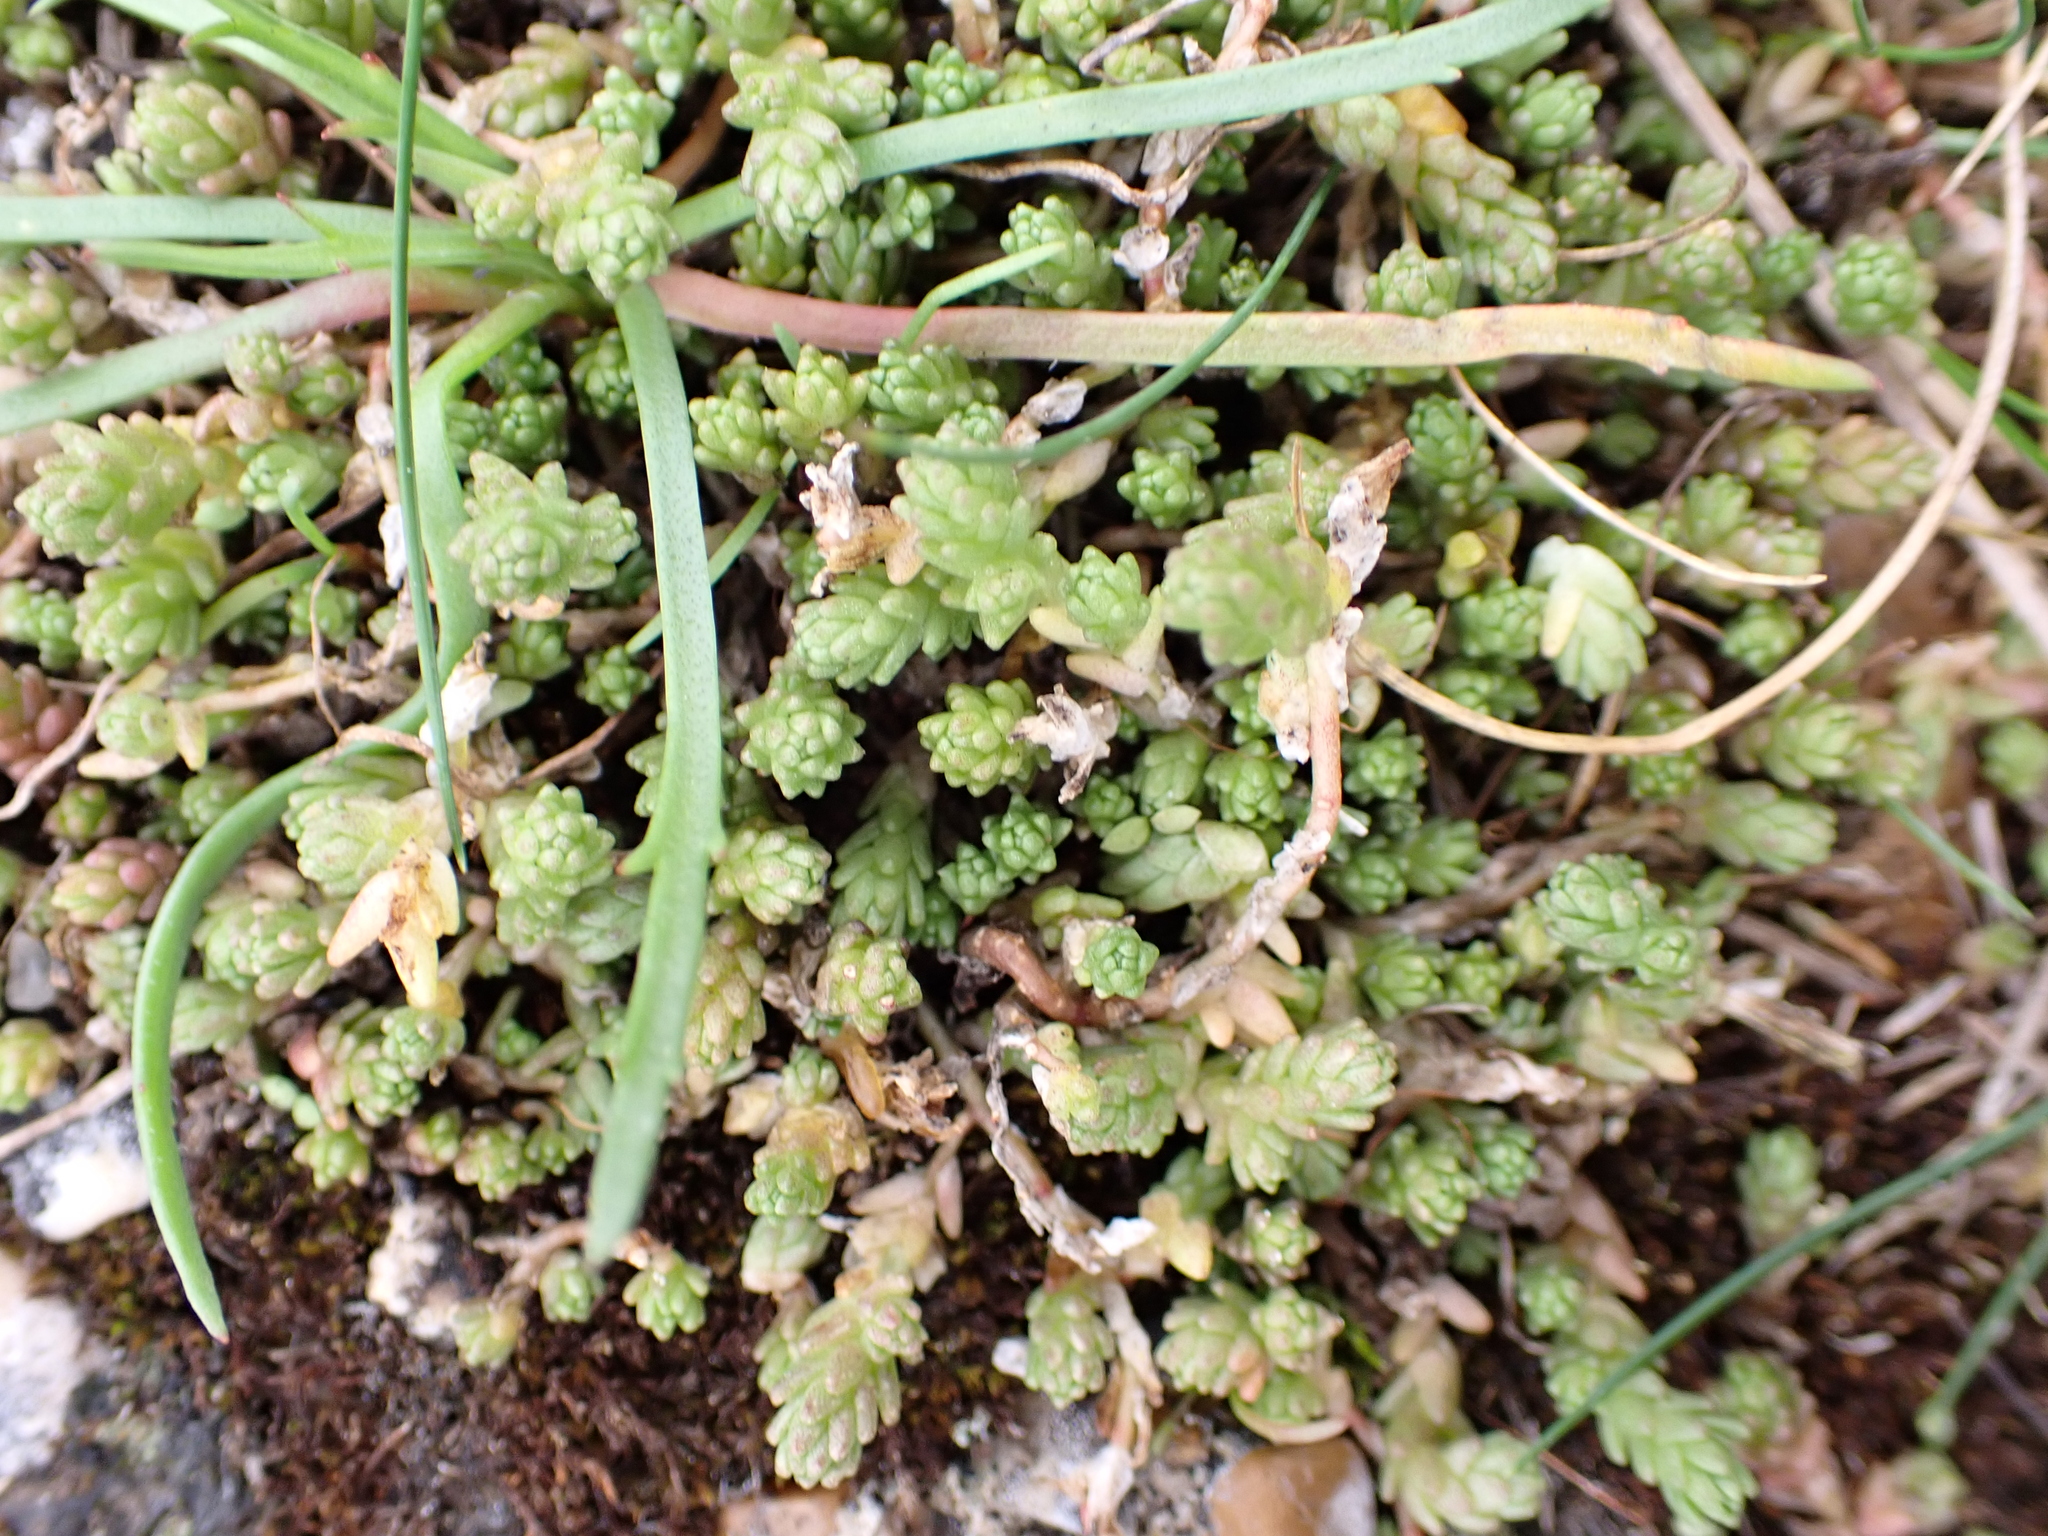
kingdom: Plantae
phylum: Tracheophyta
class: Magnoliopsida
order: Saxifragales
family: Crassulaceae
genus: Sedum
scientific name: Sedum acre
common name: Biting stonecrop
